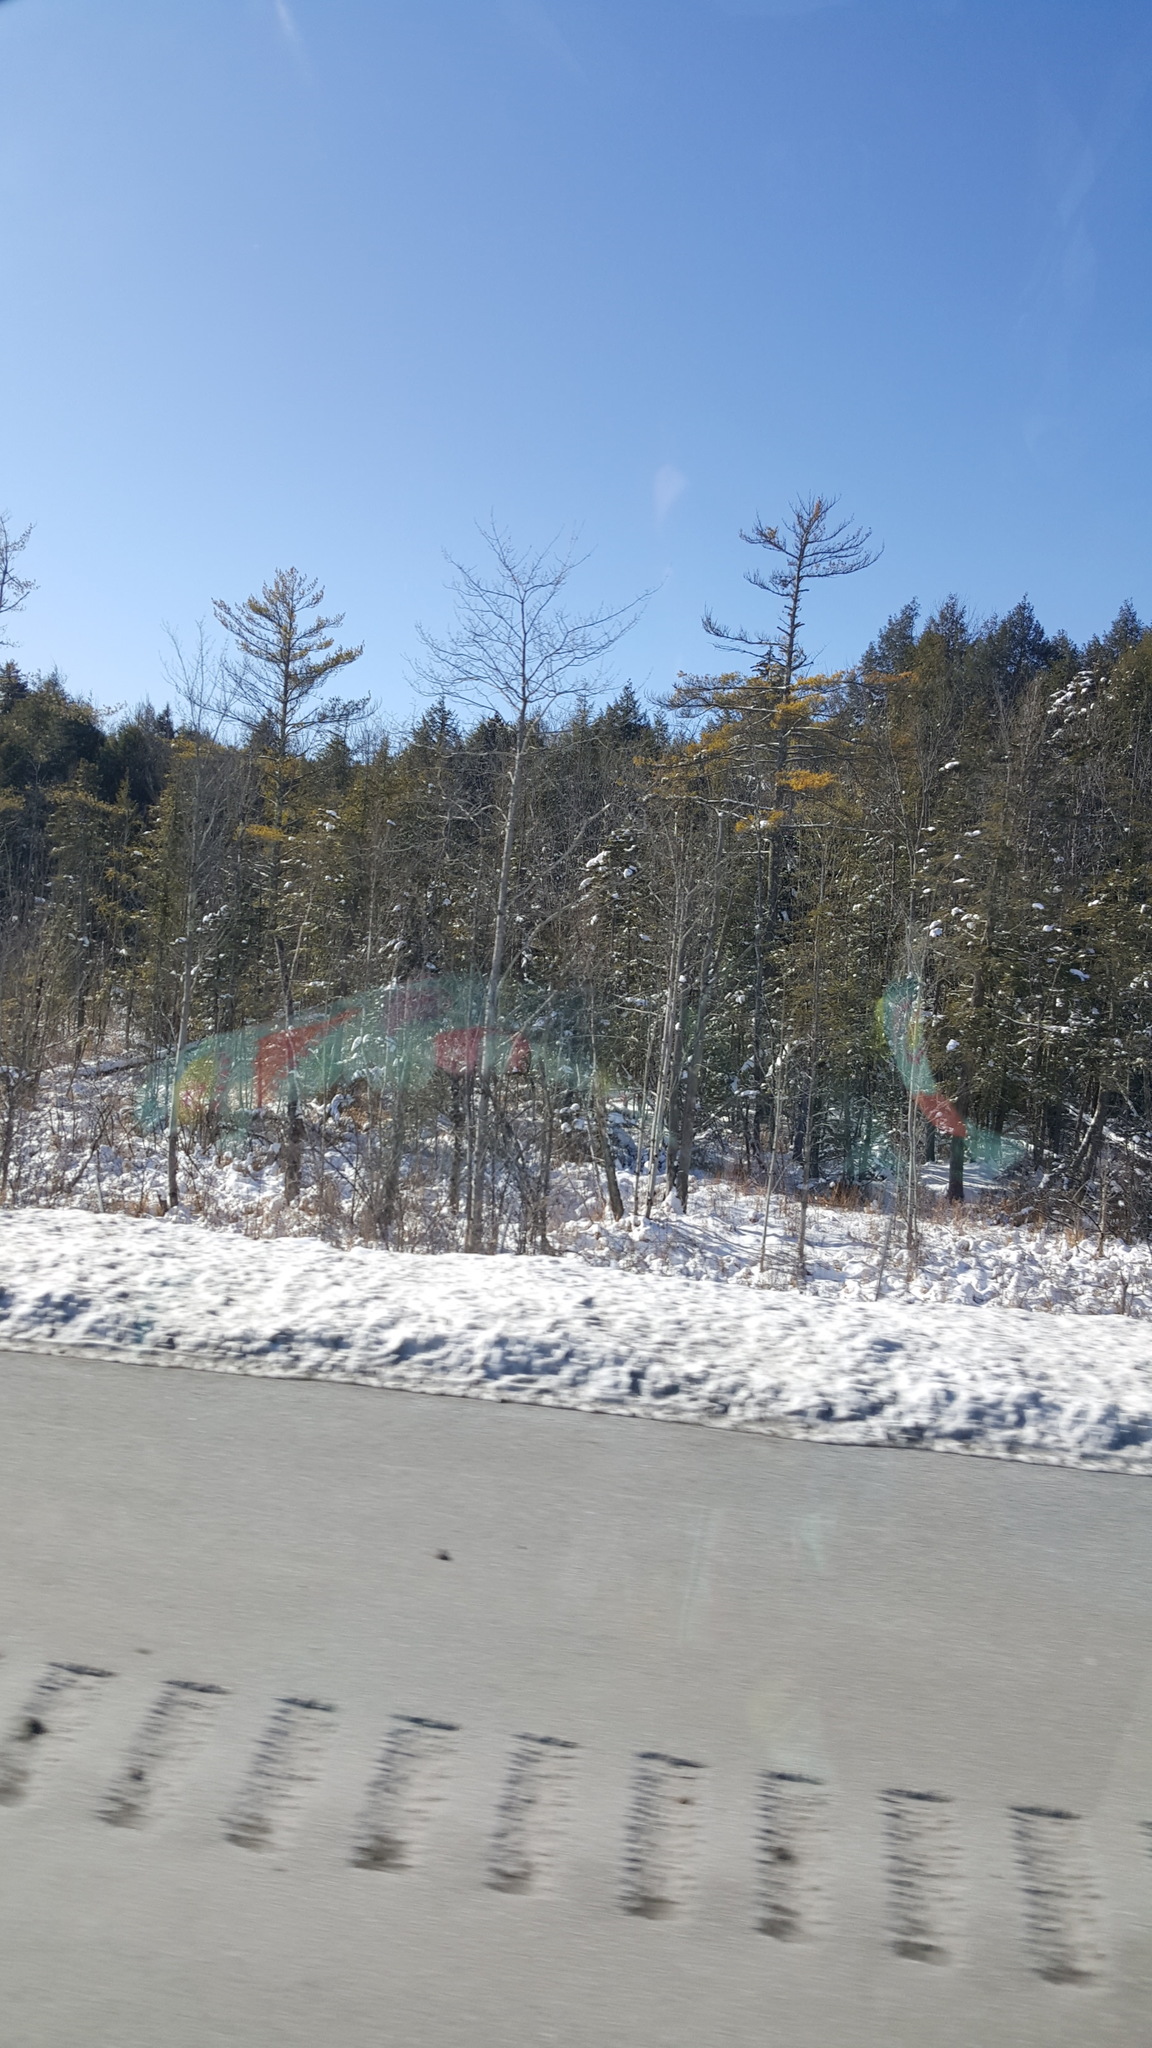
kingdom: Plantae
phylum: Tracheophyta
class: Pinopsida
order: Pinales
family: Pinaceae
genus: Pinus
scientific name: Pinus strobus
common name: Weymouth pine
